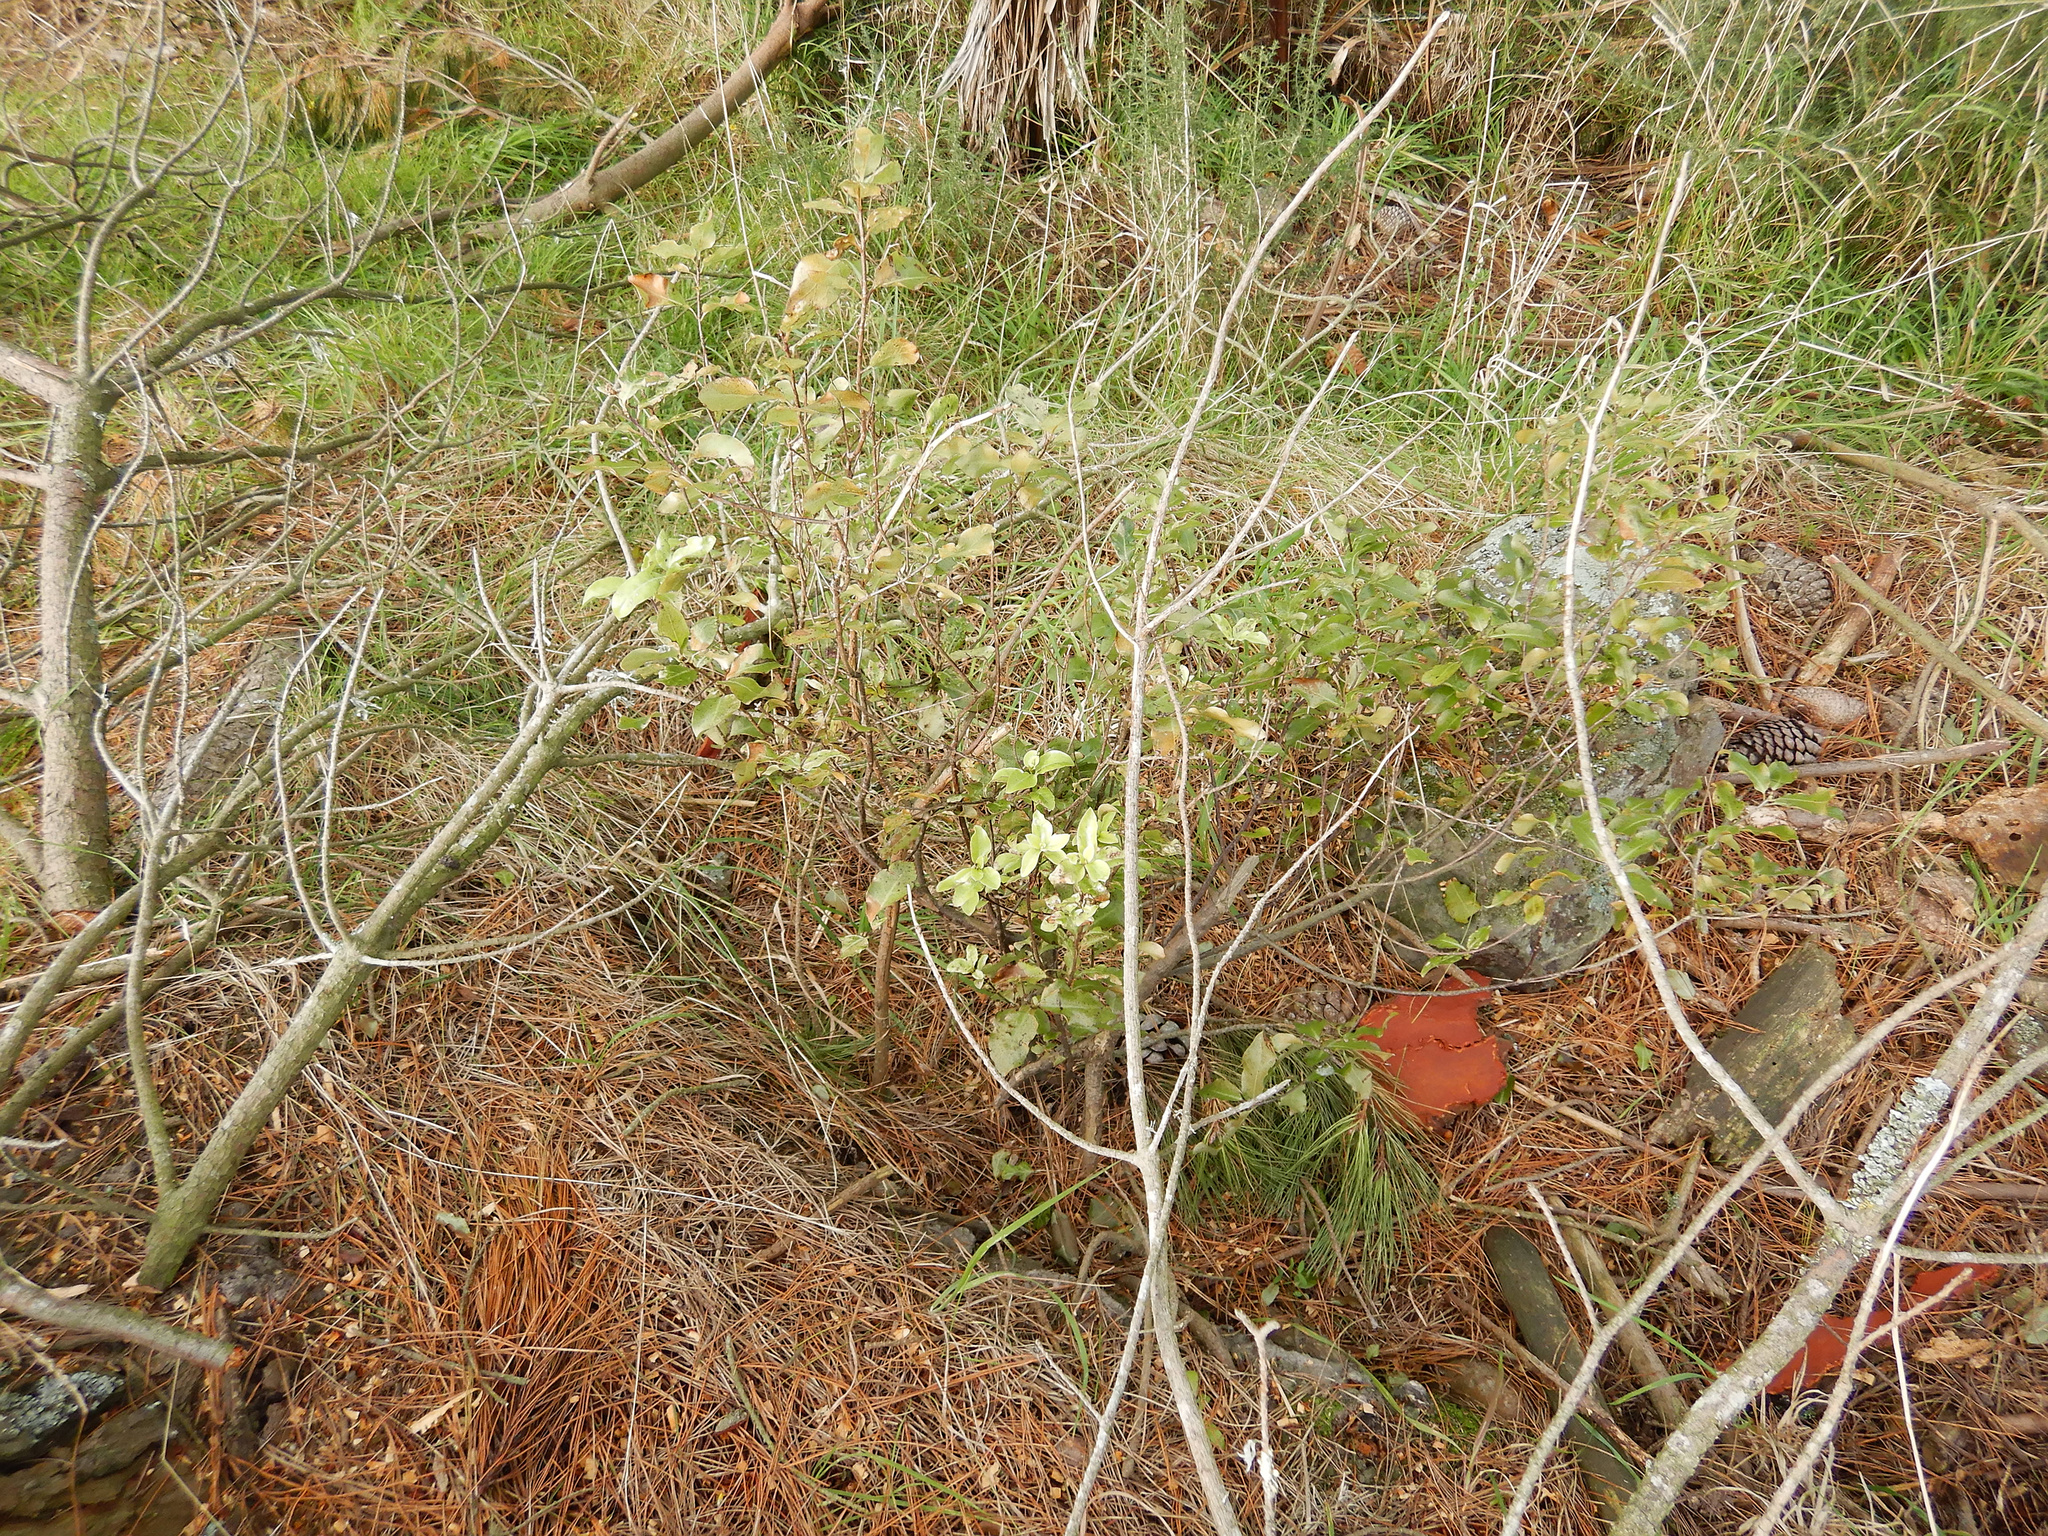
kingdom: Plantae
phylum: Tracheophyta
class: Magnoliopsida
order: Apiales
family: Pittosporaceae
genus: Pittosporum
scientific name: Pittosporum tenuifolium
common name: Kohuhu
